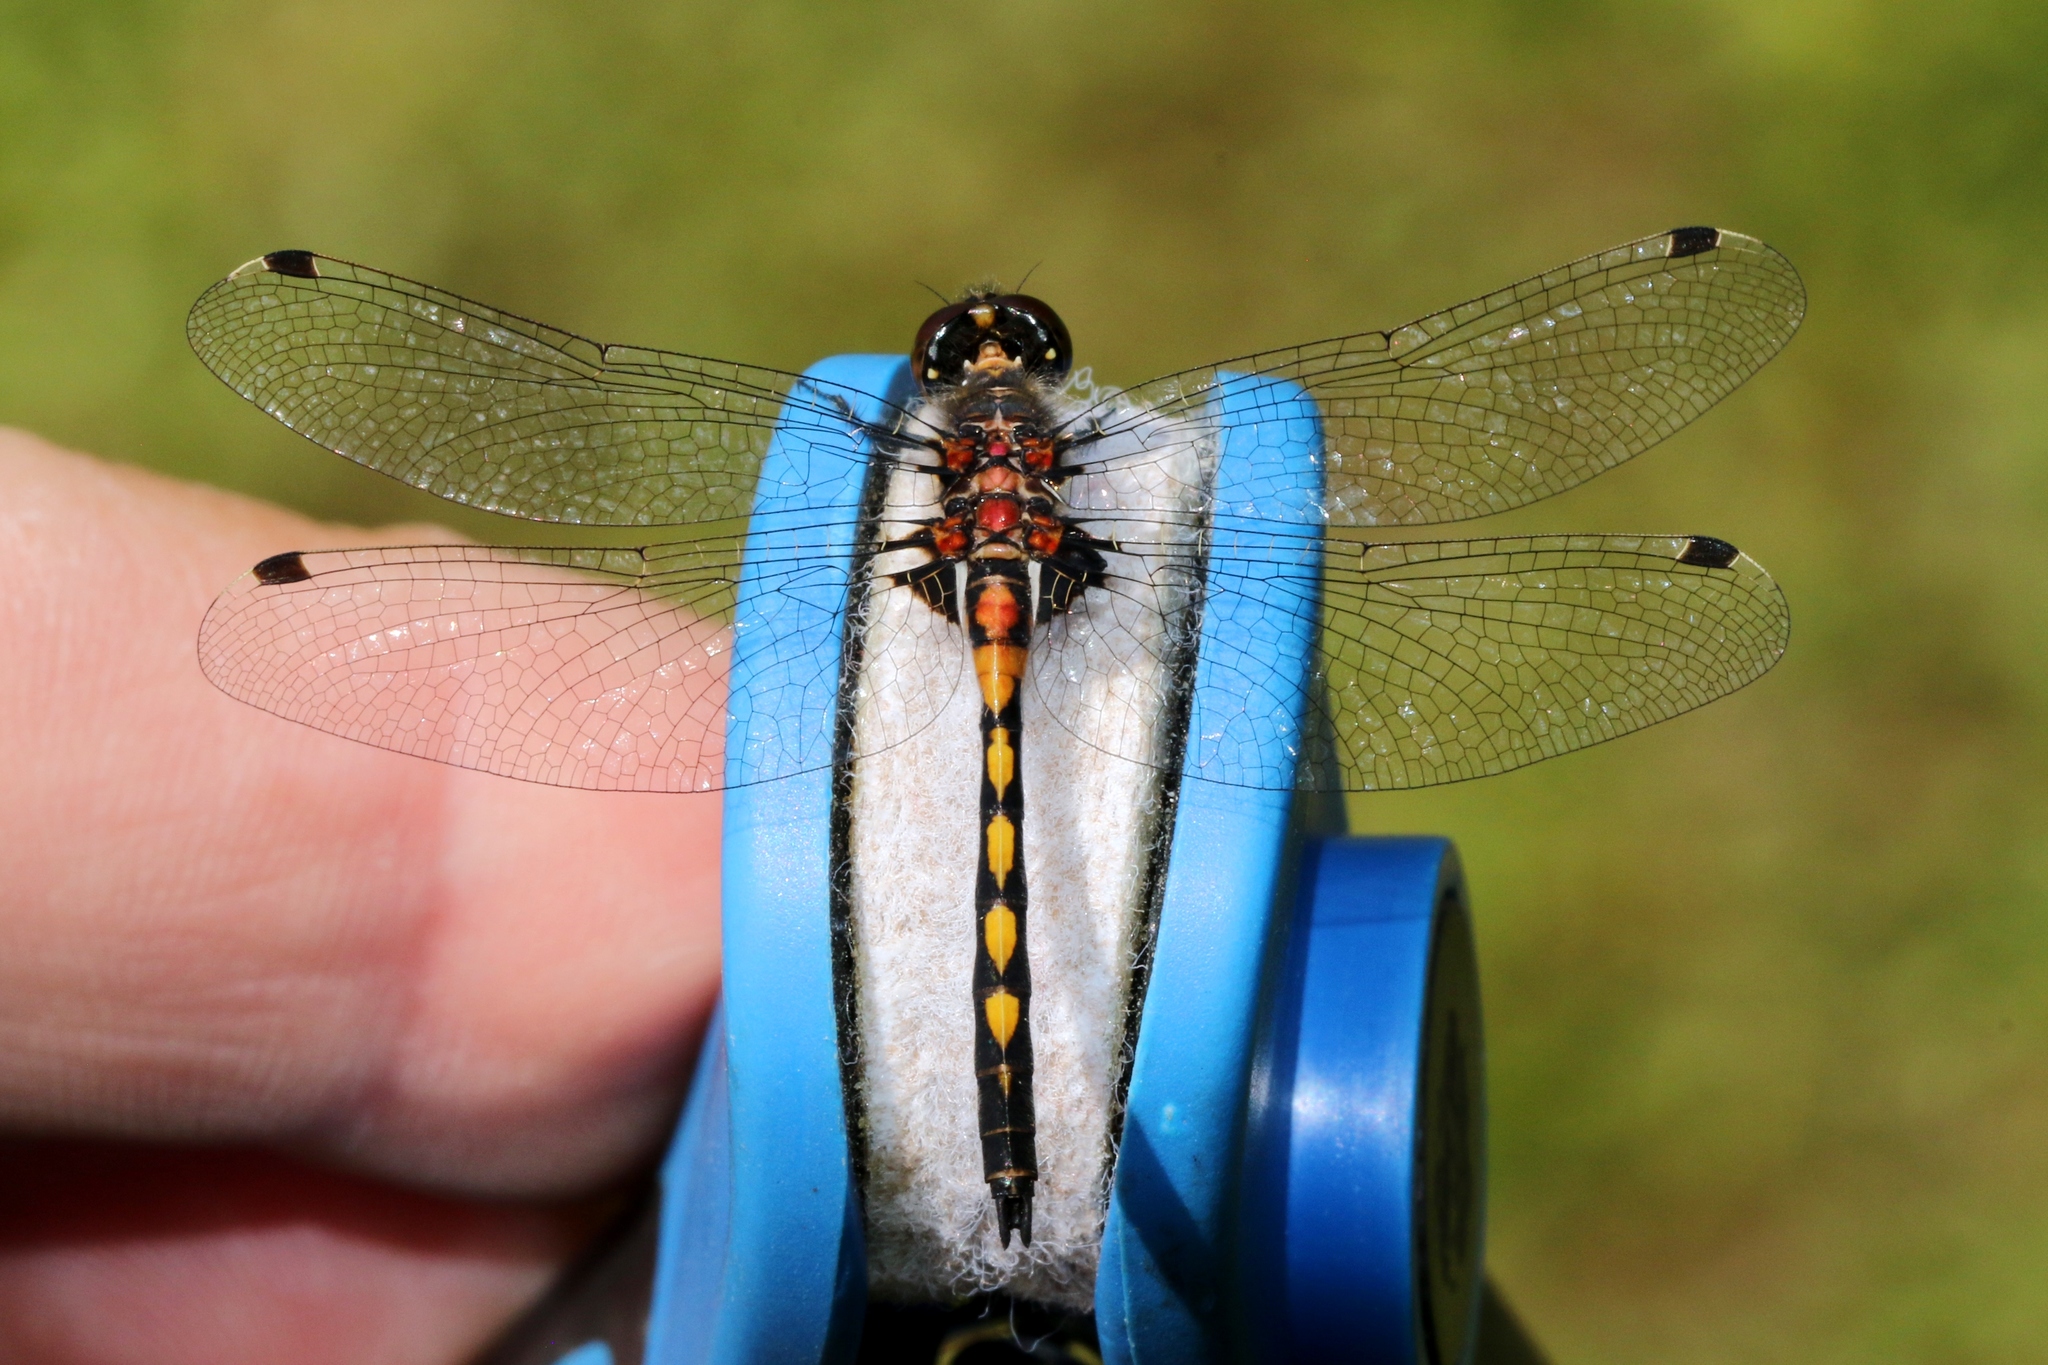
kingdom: Animalia
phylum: Arthropoda
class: Insecta
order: Odonata
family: Libellulidae
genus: Leucorrhinia
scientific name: Leucorrhinia hudsonica
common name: Hudsonian whiteface
